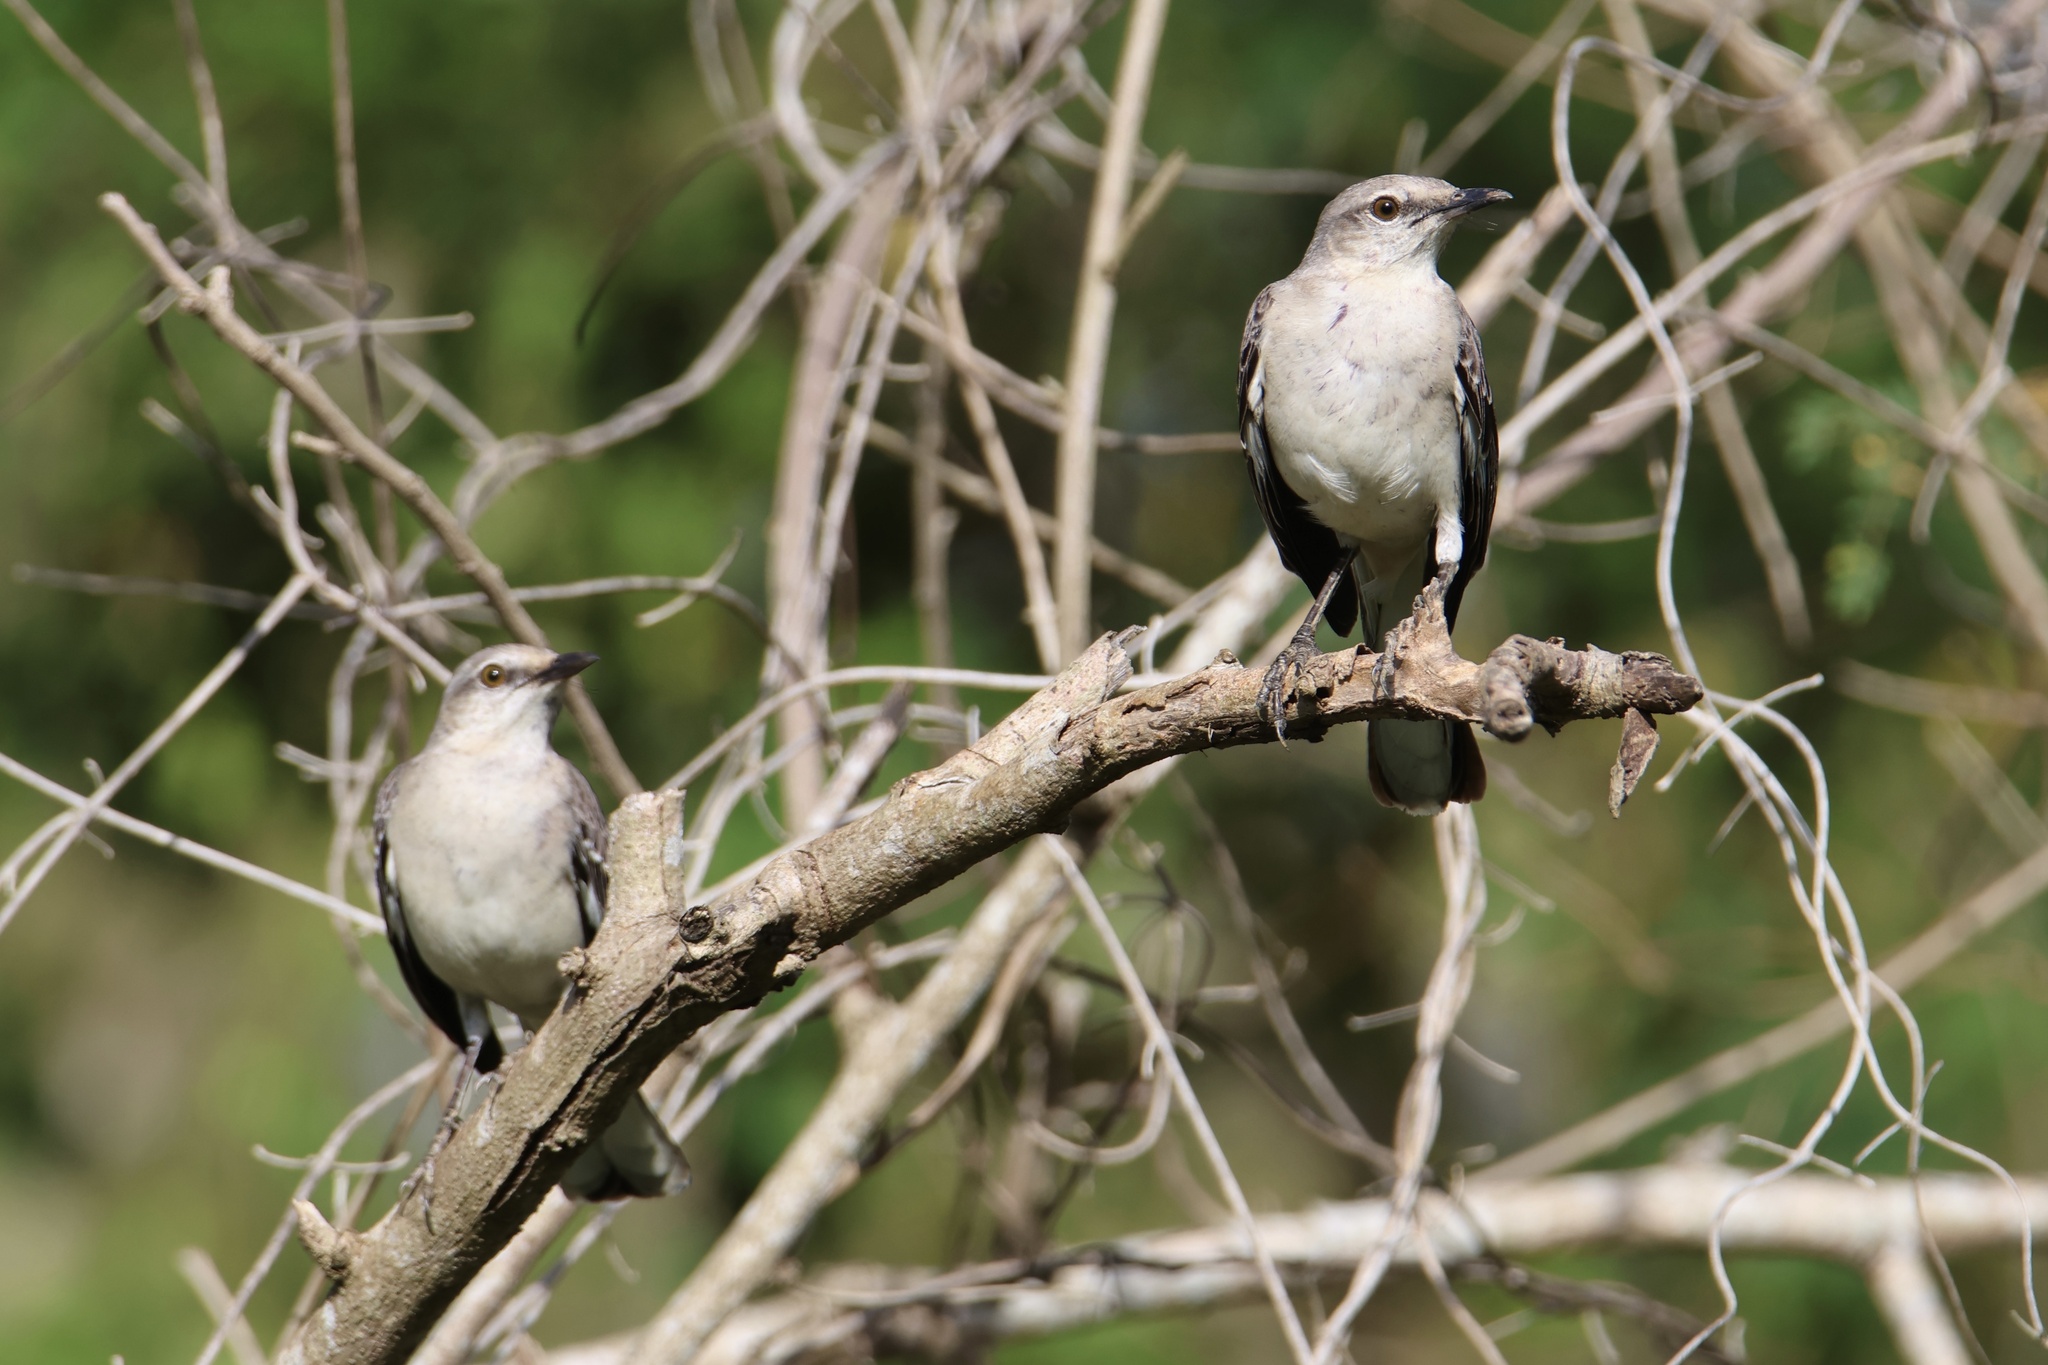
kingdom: Animalia
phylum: Chordata
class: Aves
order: Passeriformes
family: Mimidae
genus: Mimus
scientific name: Mimus polyglottos
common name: Northern mockingbird
